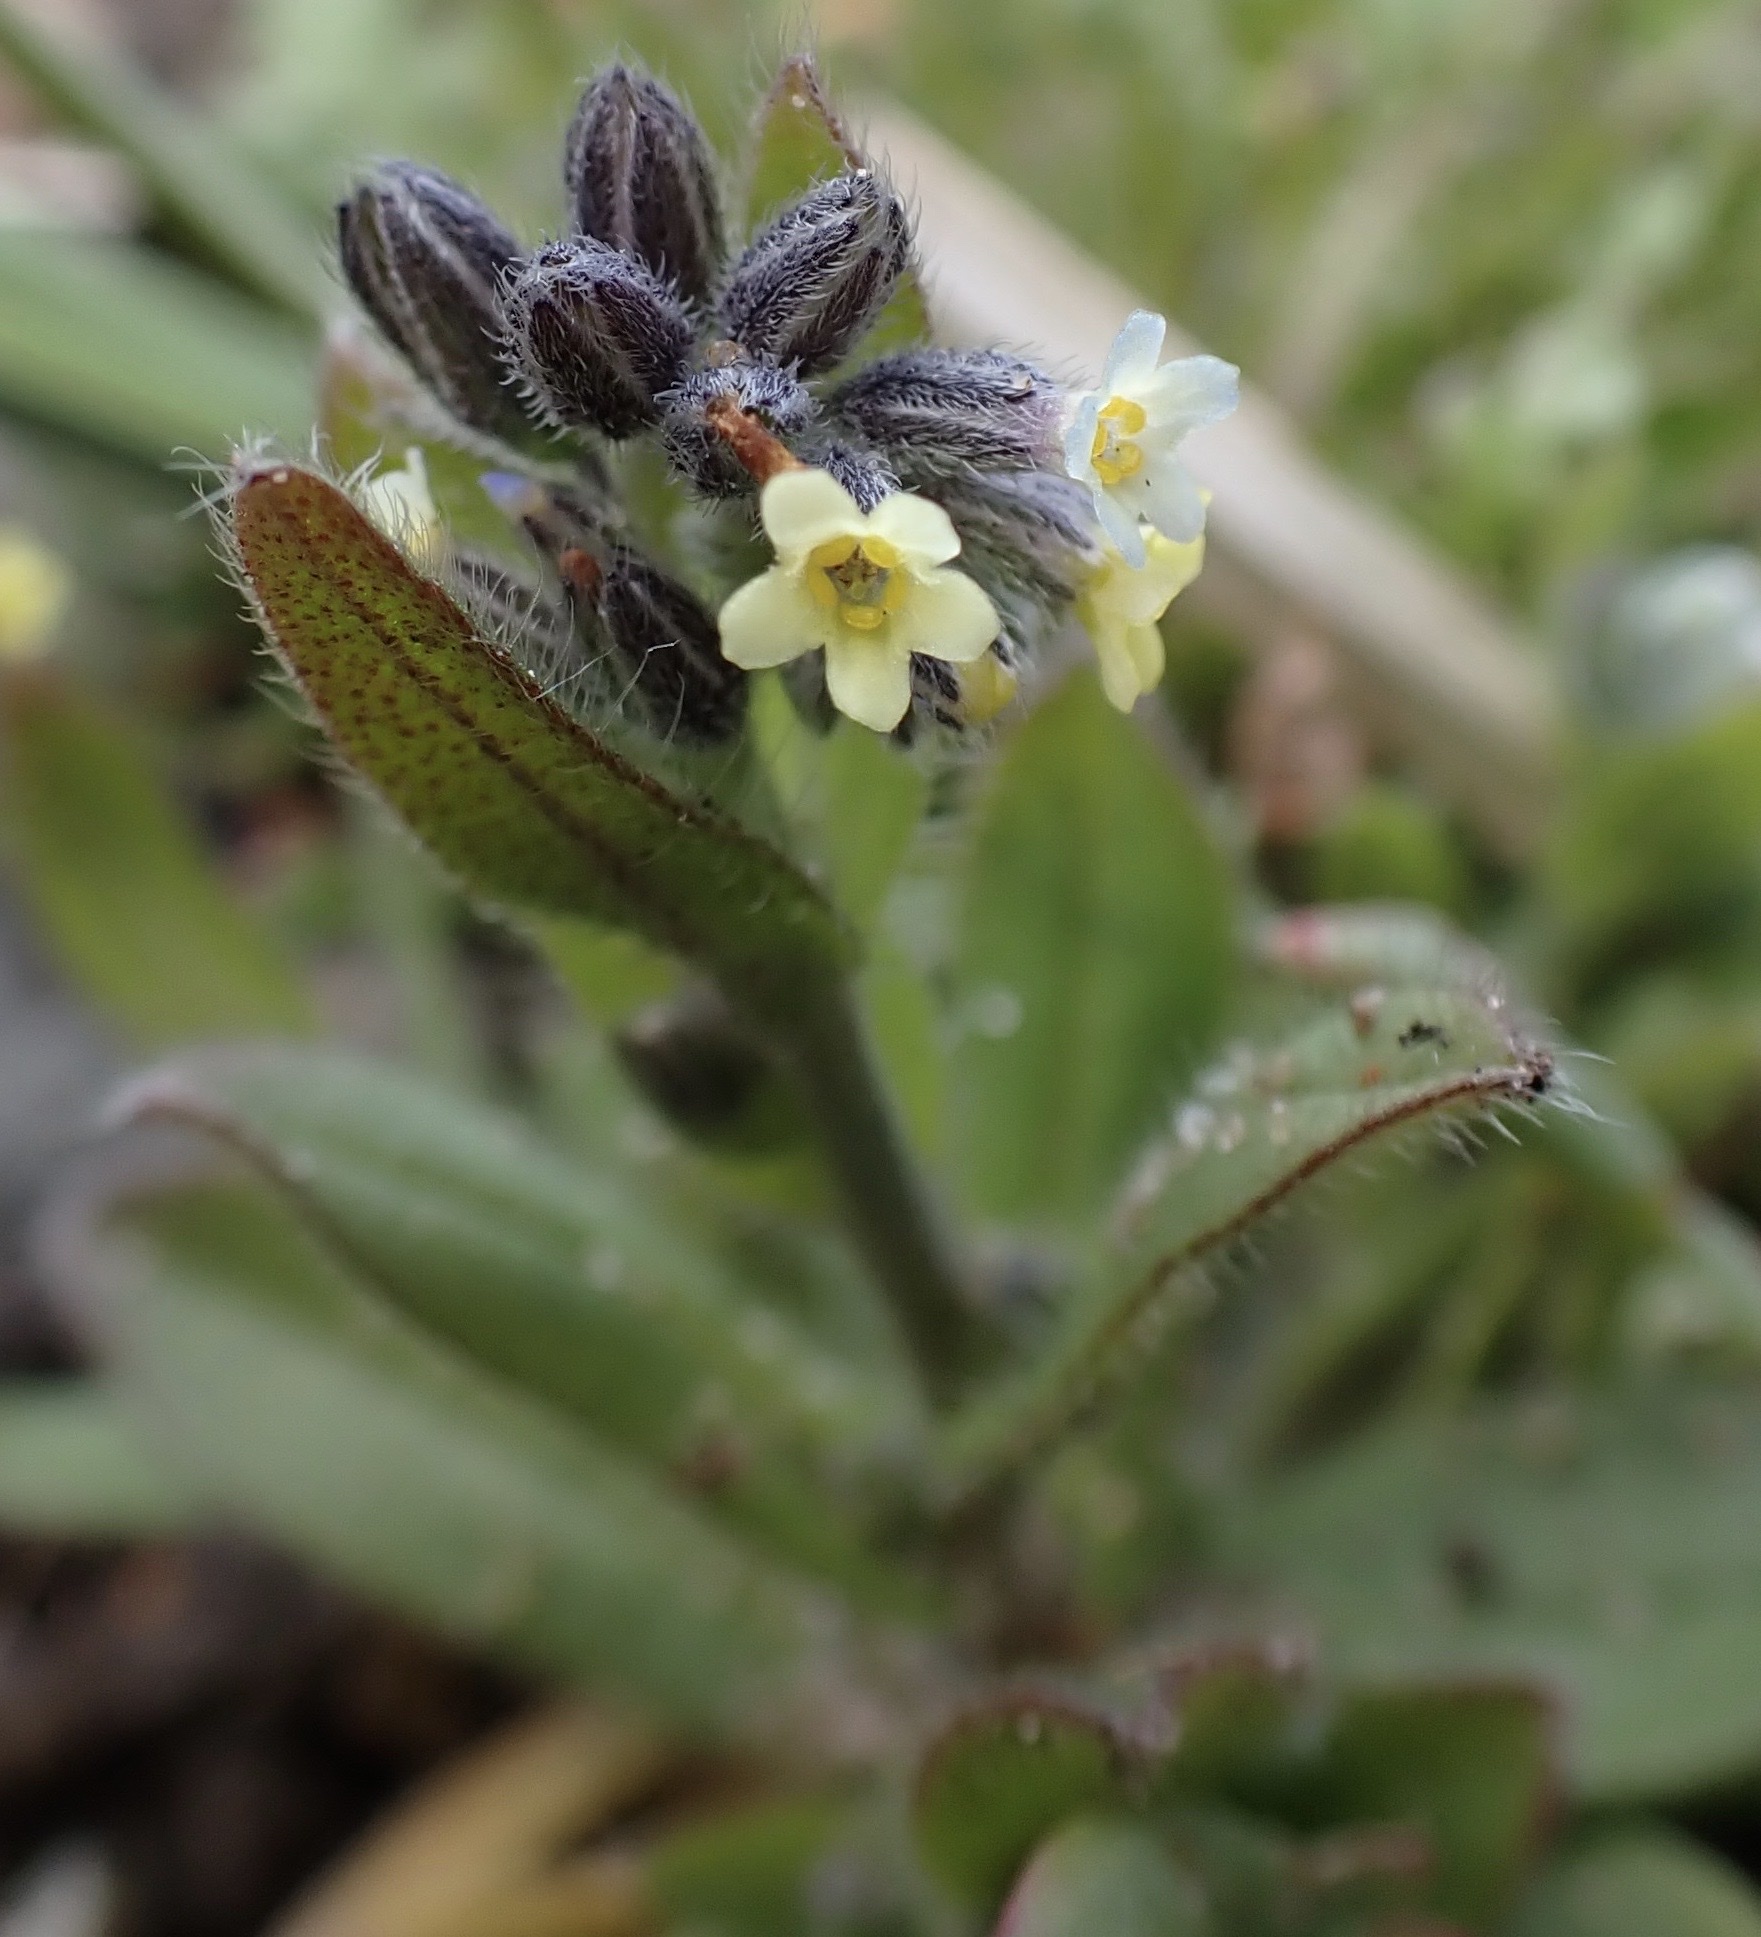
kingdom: Plantae
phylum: Tracheophyta
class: Magnoliopsida
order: Boraginales
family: Boraginaceae
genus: Myosotis
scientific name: Myosotis discolor
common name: Changing forget-me-not
